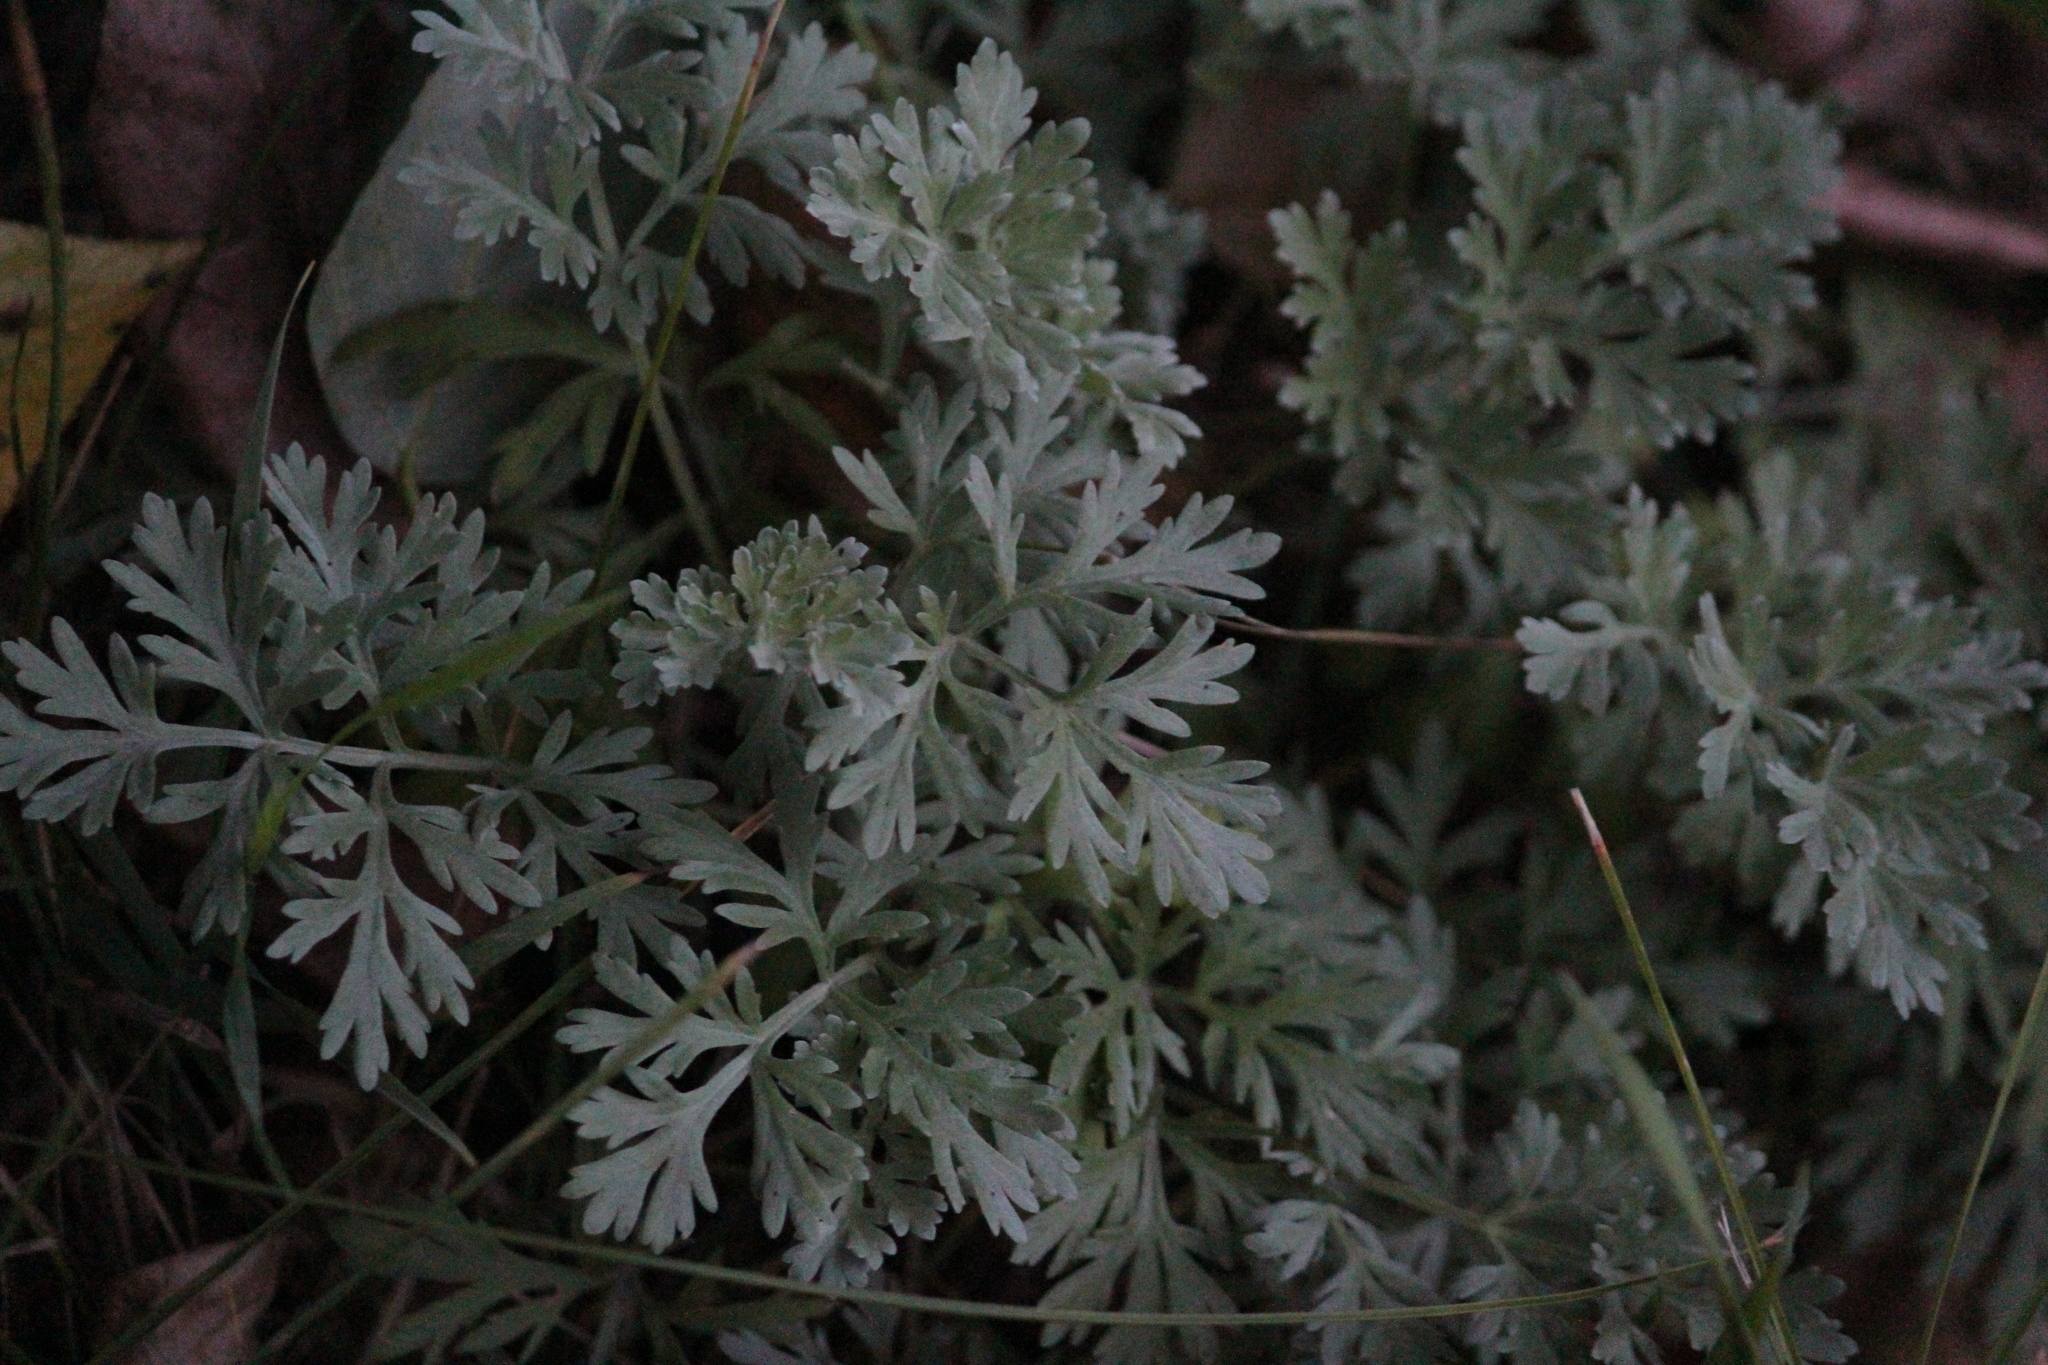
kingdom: Plantae
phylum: Tracheophyta
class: Magnoliopsida
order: Asterales
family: Asteraceae
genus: Artemisia
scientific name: Artemisia absinthium
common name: Wormwood
